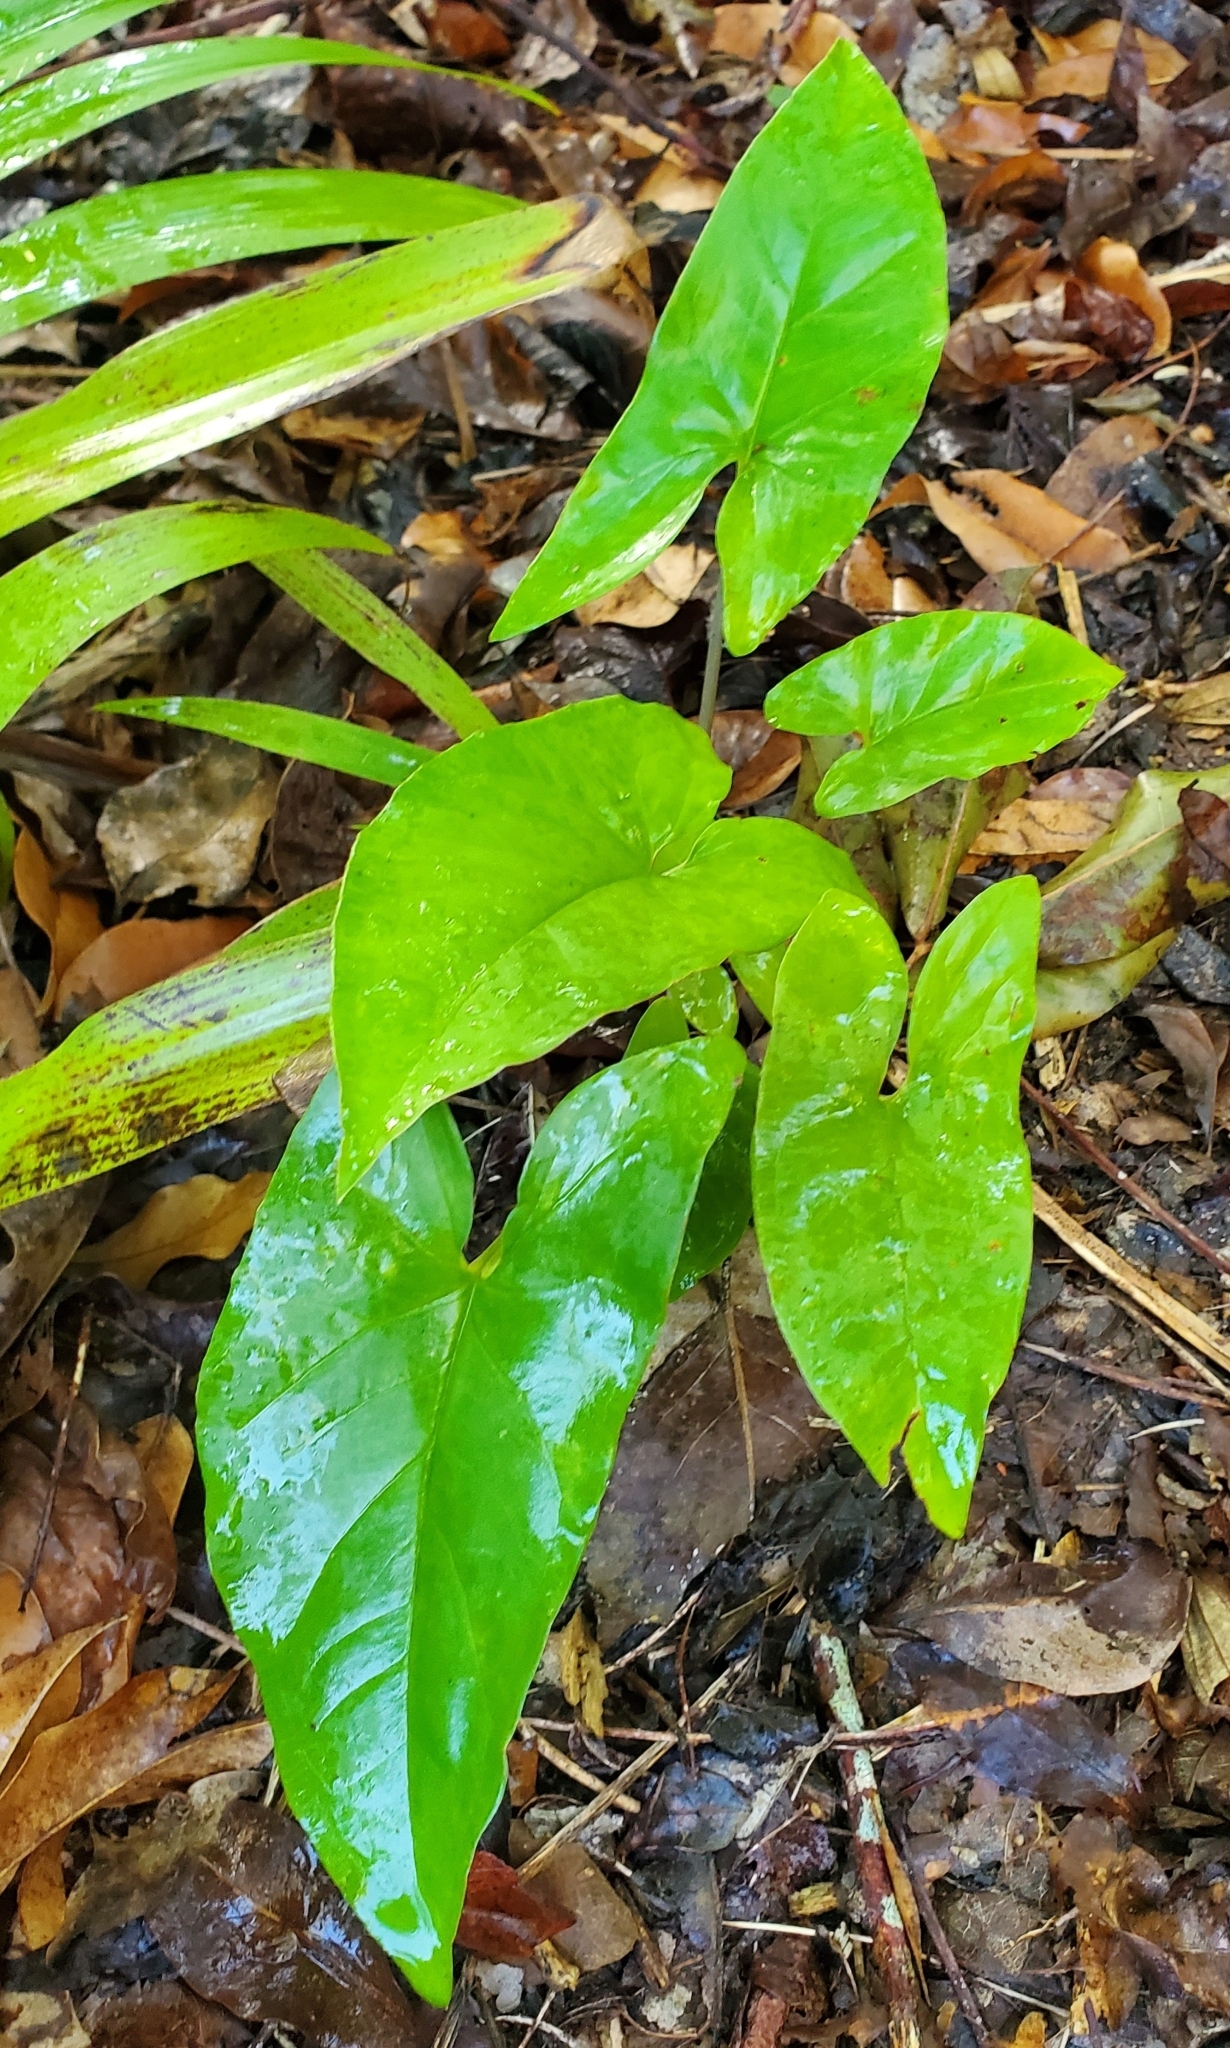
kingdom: Plantae
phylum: Tracheophyta
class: Liliopsida
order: Alismatales
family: Araceae
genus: Syngonium
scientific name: Syngonium podophyllum
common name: American evergreen
